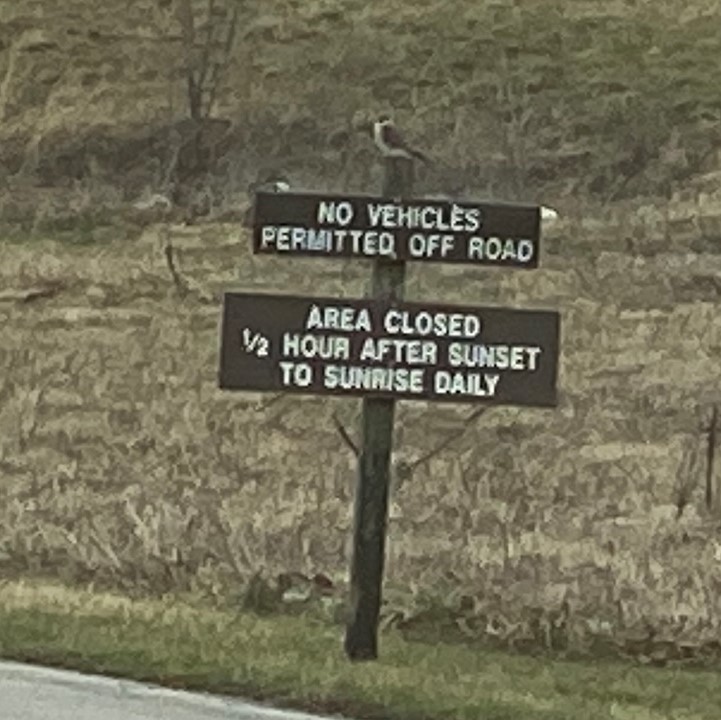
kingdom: Animalia
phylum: Chordata
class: Aves
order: Falconiformes
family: Falconidae
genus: Falco
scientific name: Falco sparverius
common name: American kestrel
